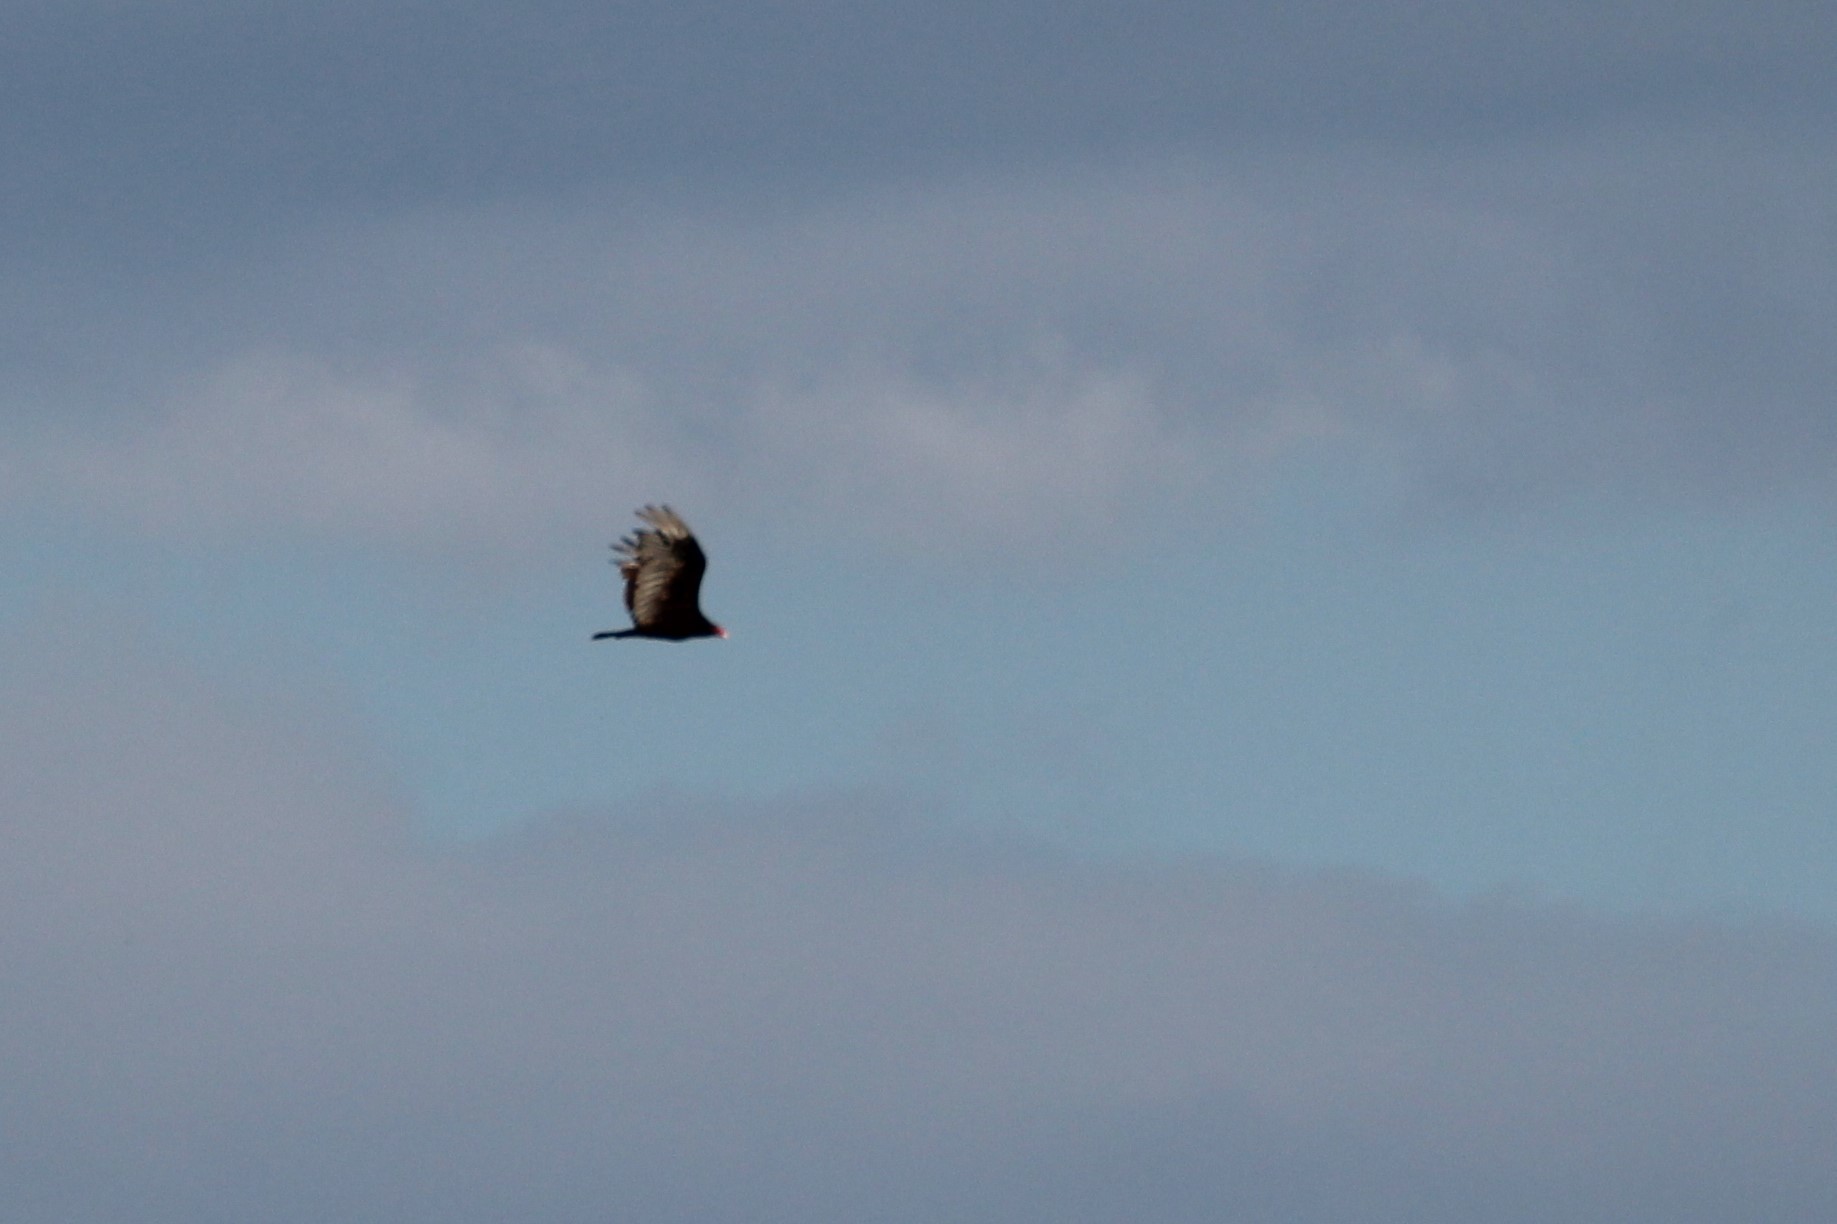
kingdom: Animalia
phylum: Chordata
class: Aves
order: Accipitriformes
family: Cathartidae
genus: Cathartes
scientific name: Cathartes aura
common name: Turkey vulture
